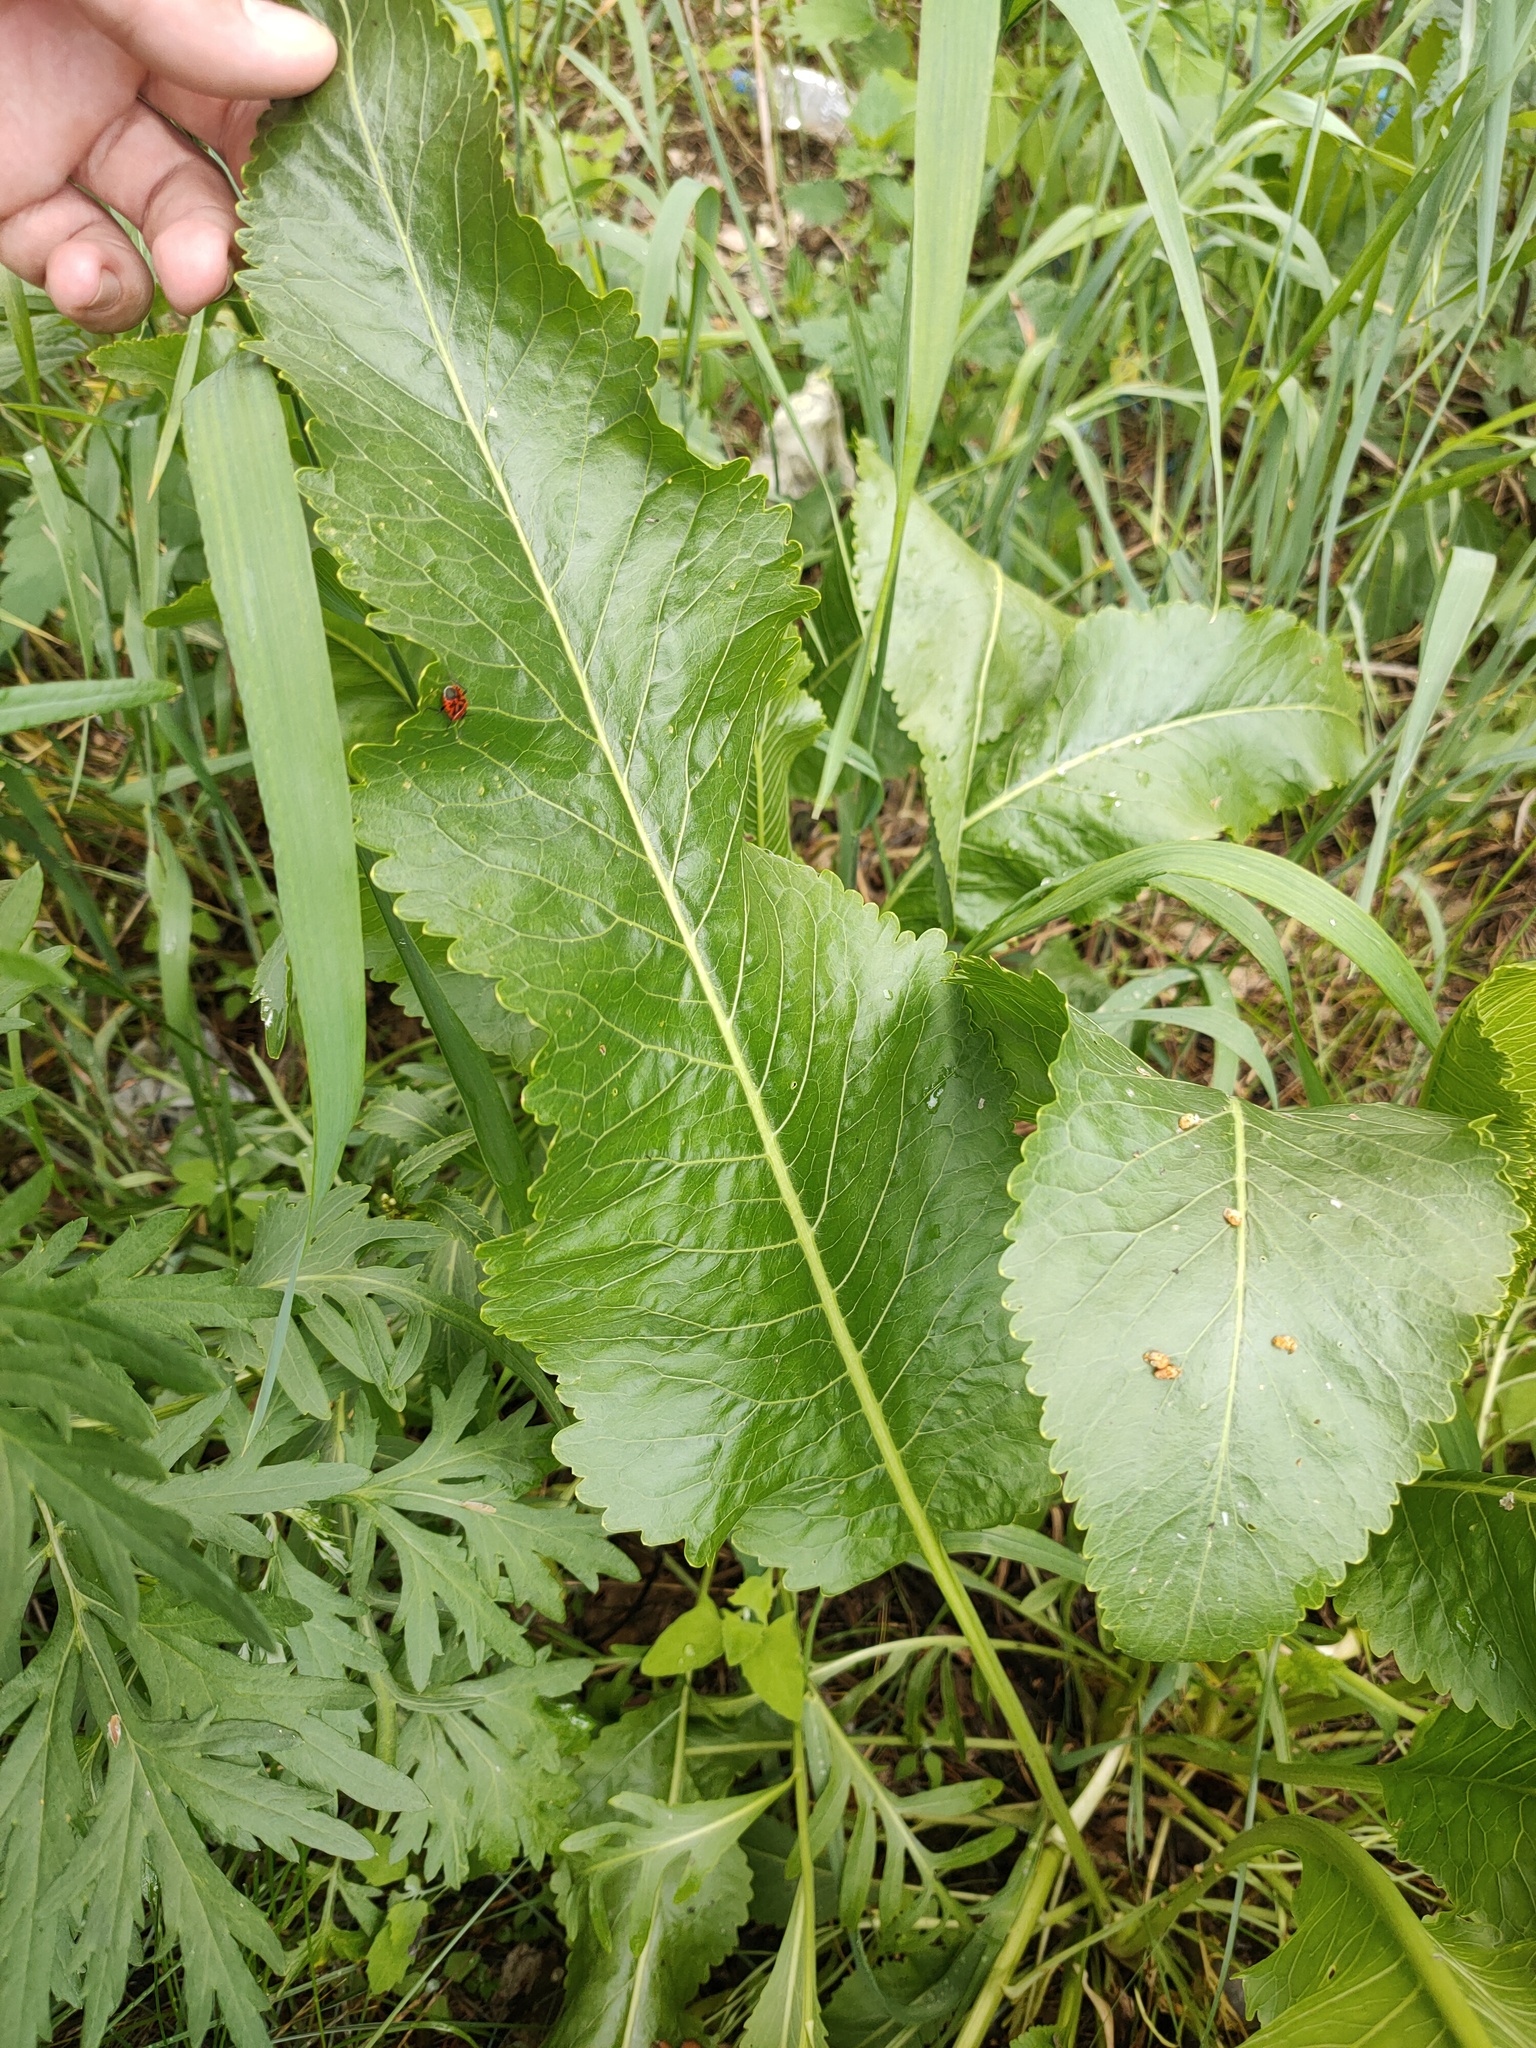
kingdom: Plantae
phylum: Tracheophyta
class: Magnoliopsida
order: Brassicales
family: Brassicaceae
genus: Armoracia
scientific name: Armoracia rusticana
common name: Horseradish
